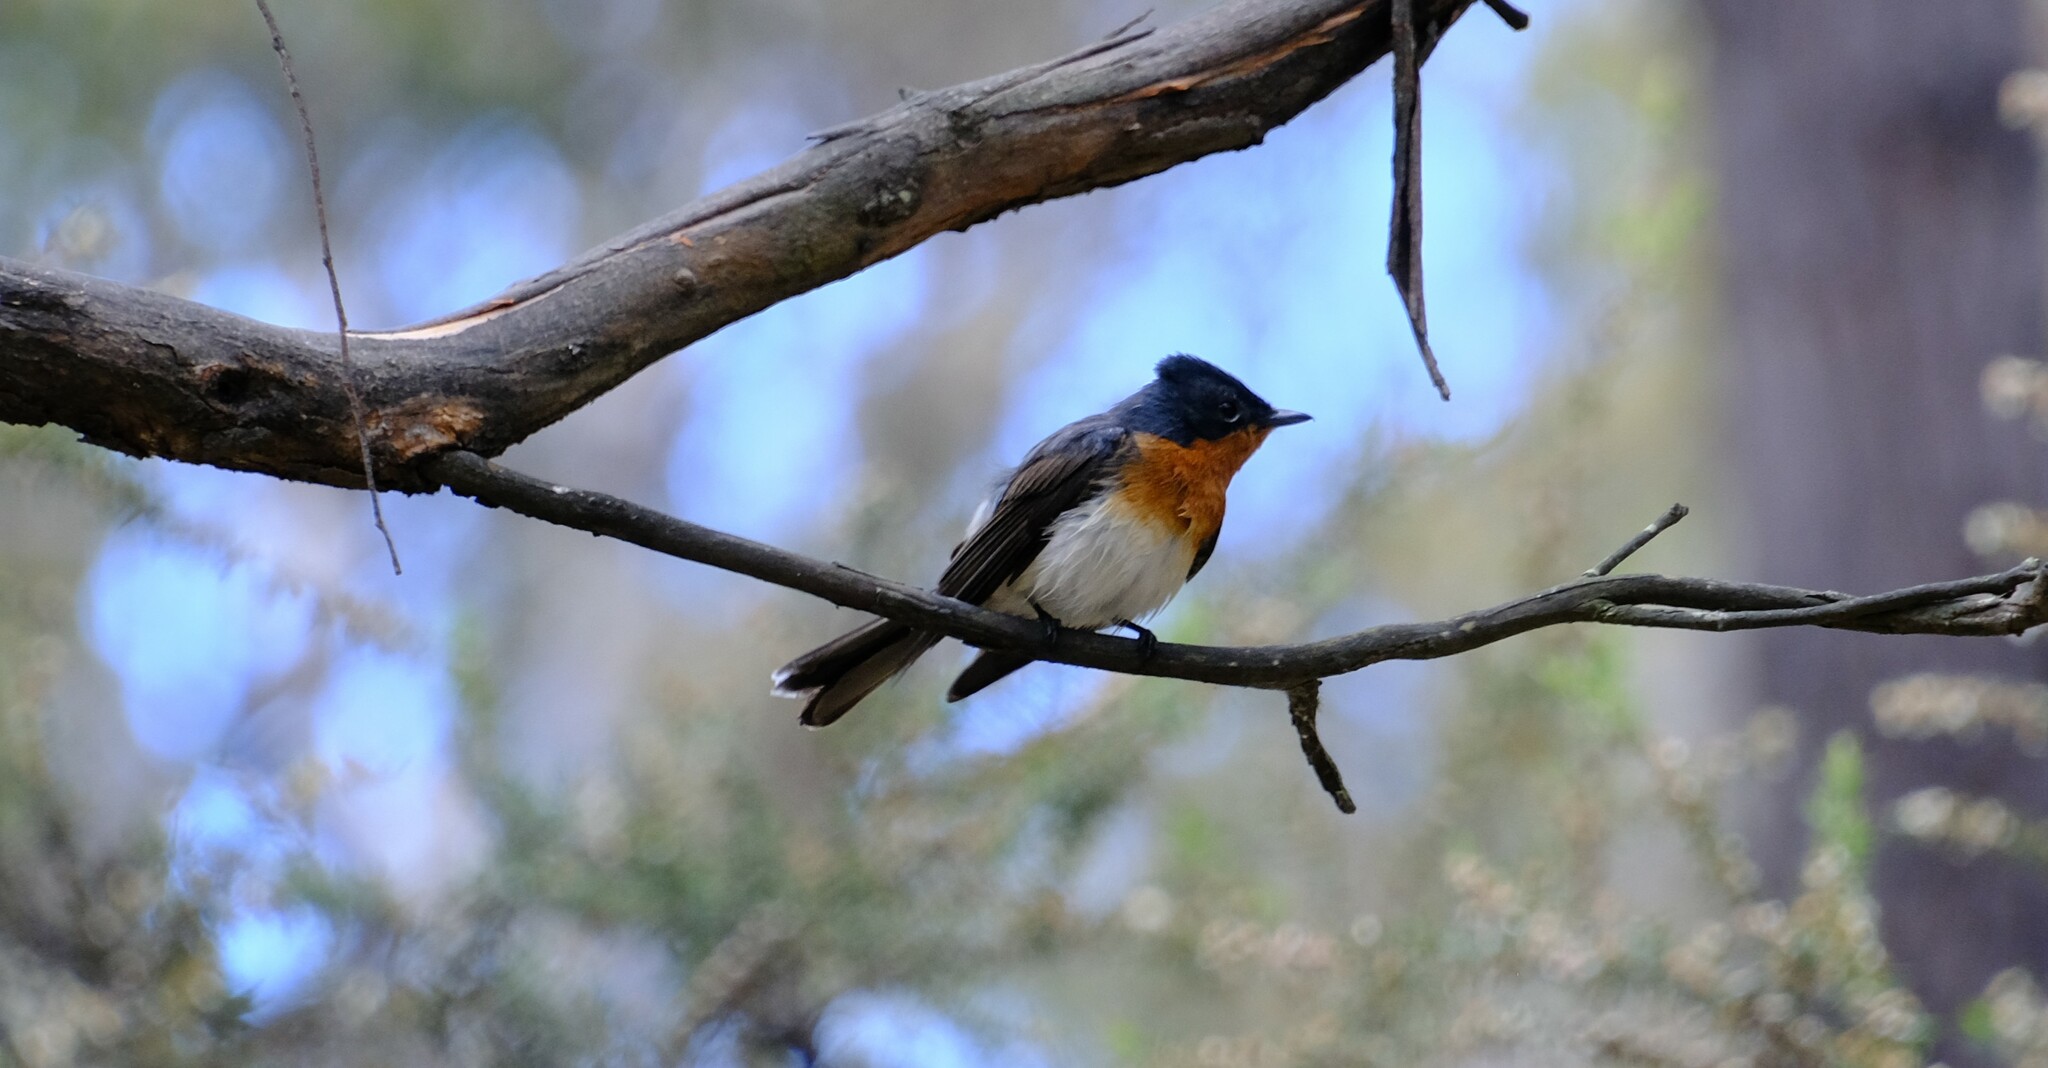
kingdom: Animalia
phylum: Chordata
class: Aves
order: Passeriformes
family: Monarchidae
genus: Myiagra
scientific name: Myiagra cyanoleuca
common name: Satin flycatcher
